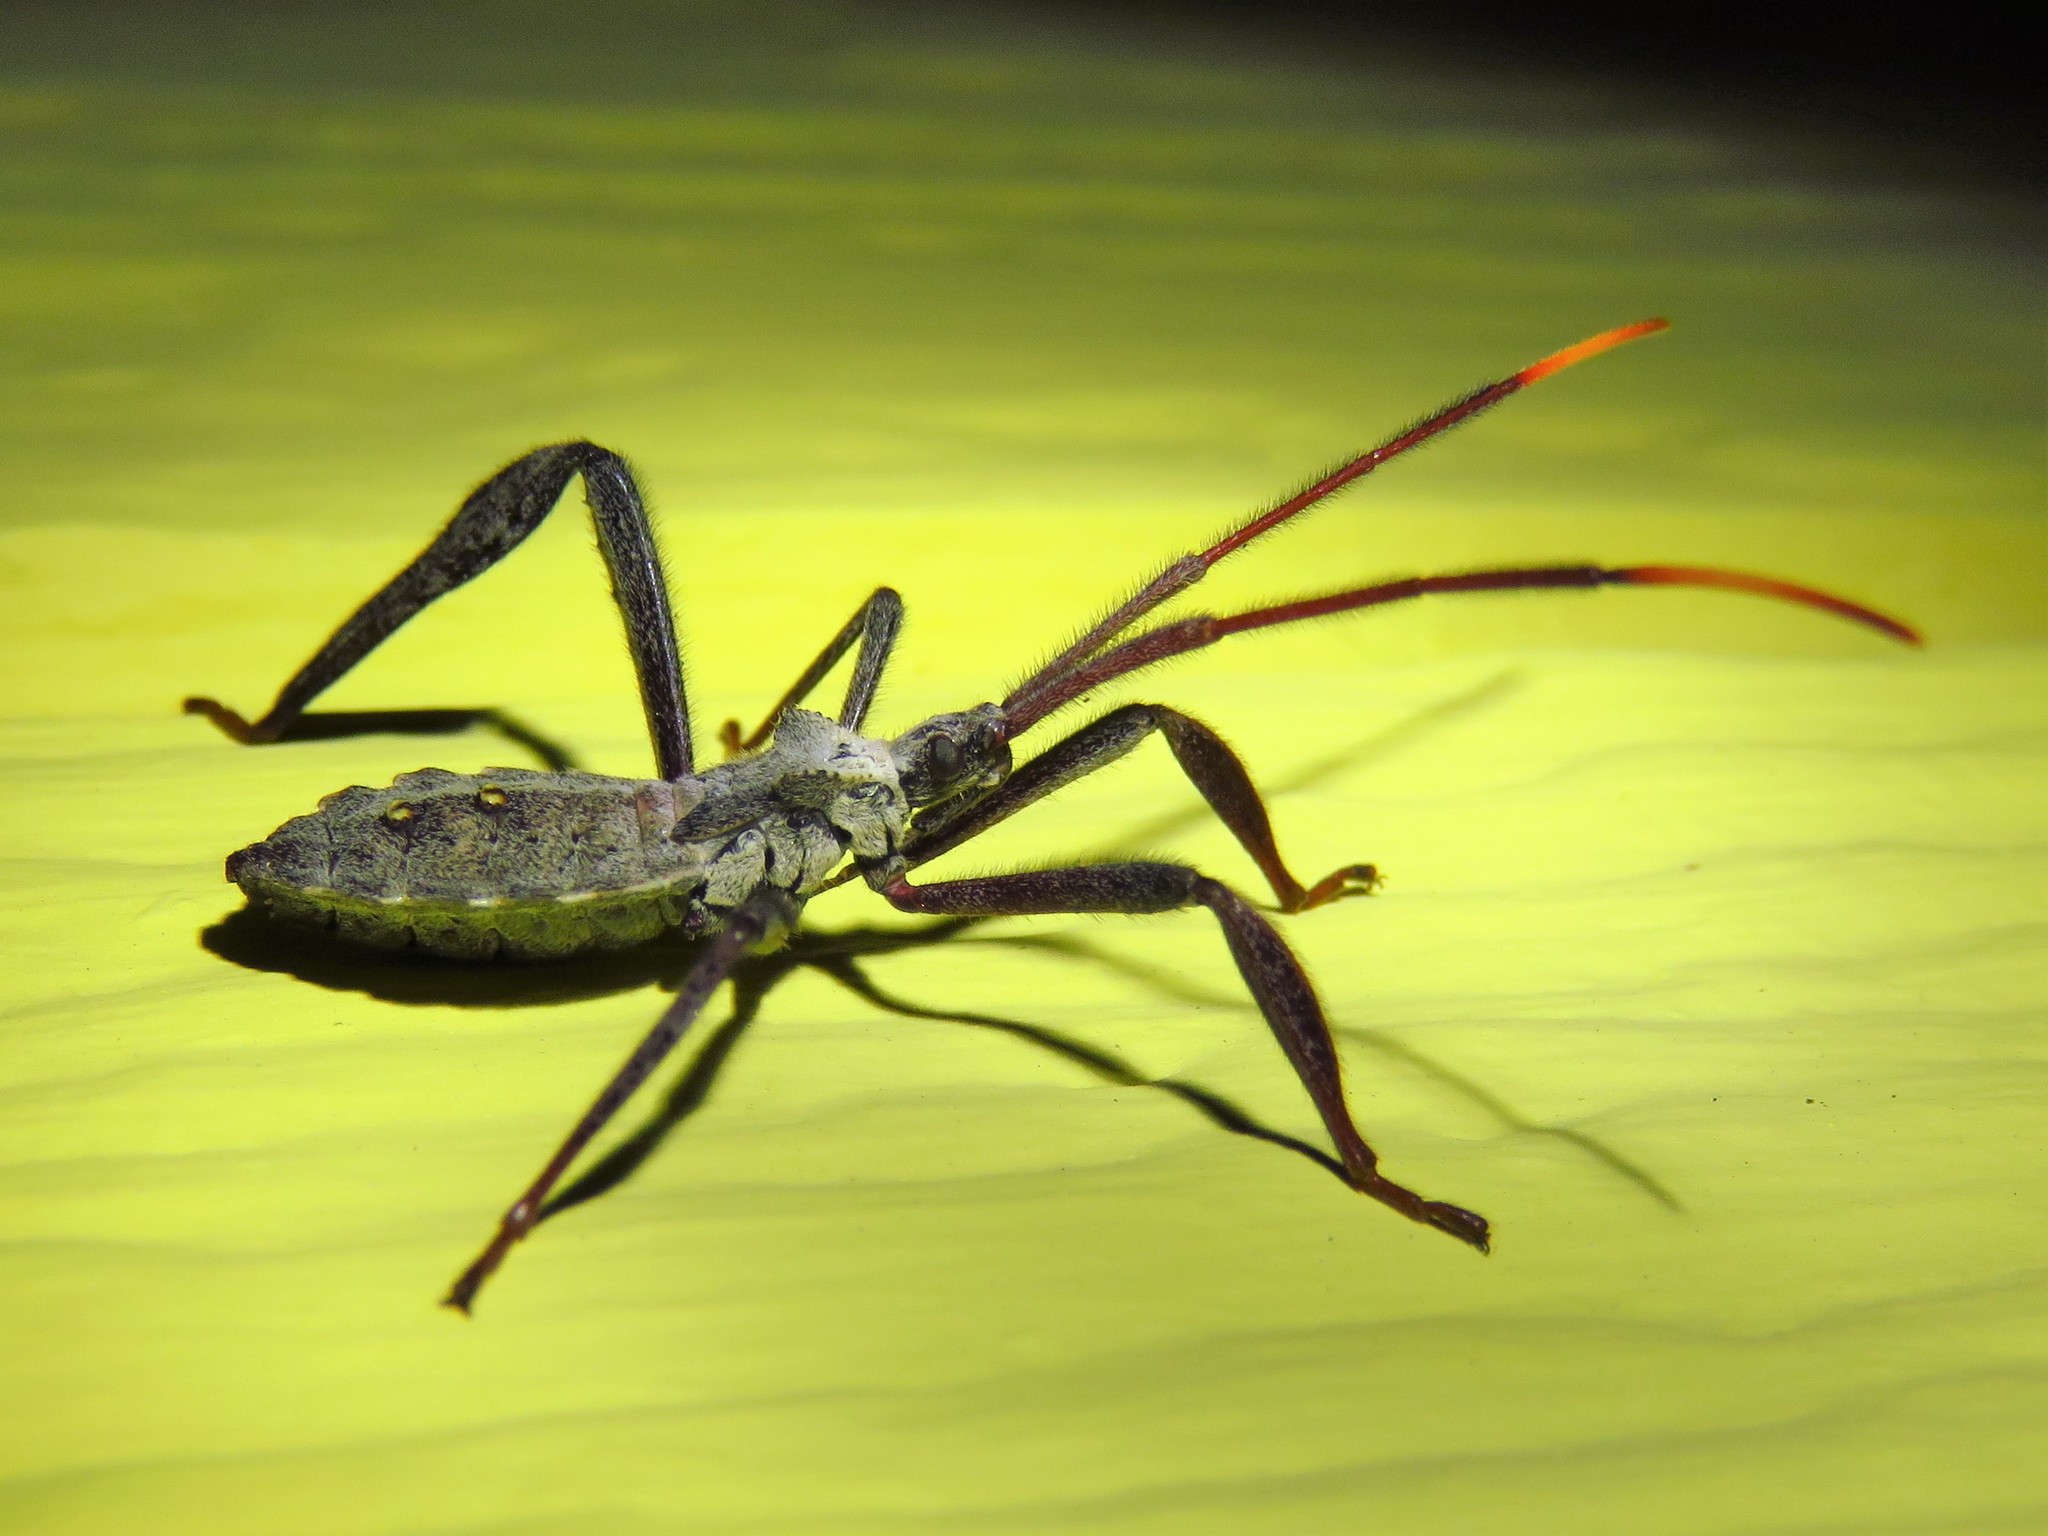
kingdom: Animalia
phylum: Arthropoda
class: Insecta
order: Hemiptera
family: Coreidae
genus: Acanthocephala
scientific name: Acanthocephala declivis
